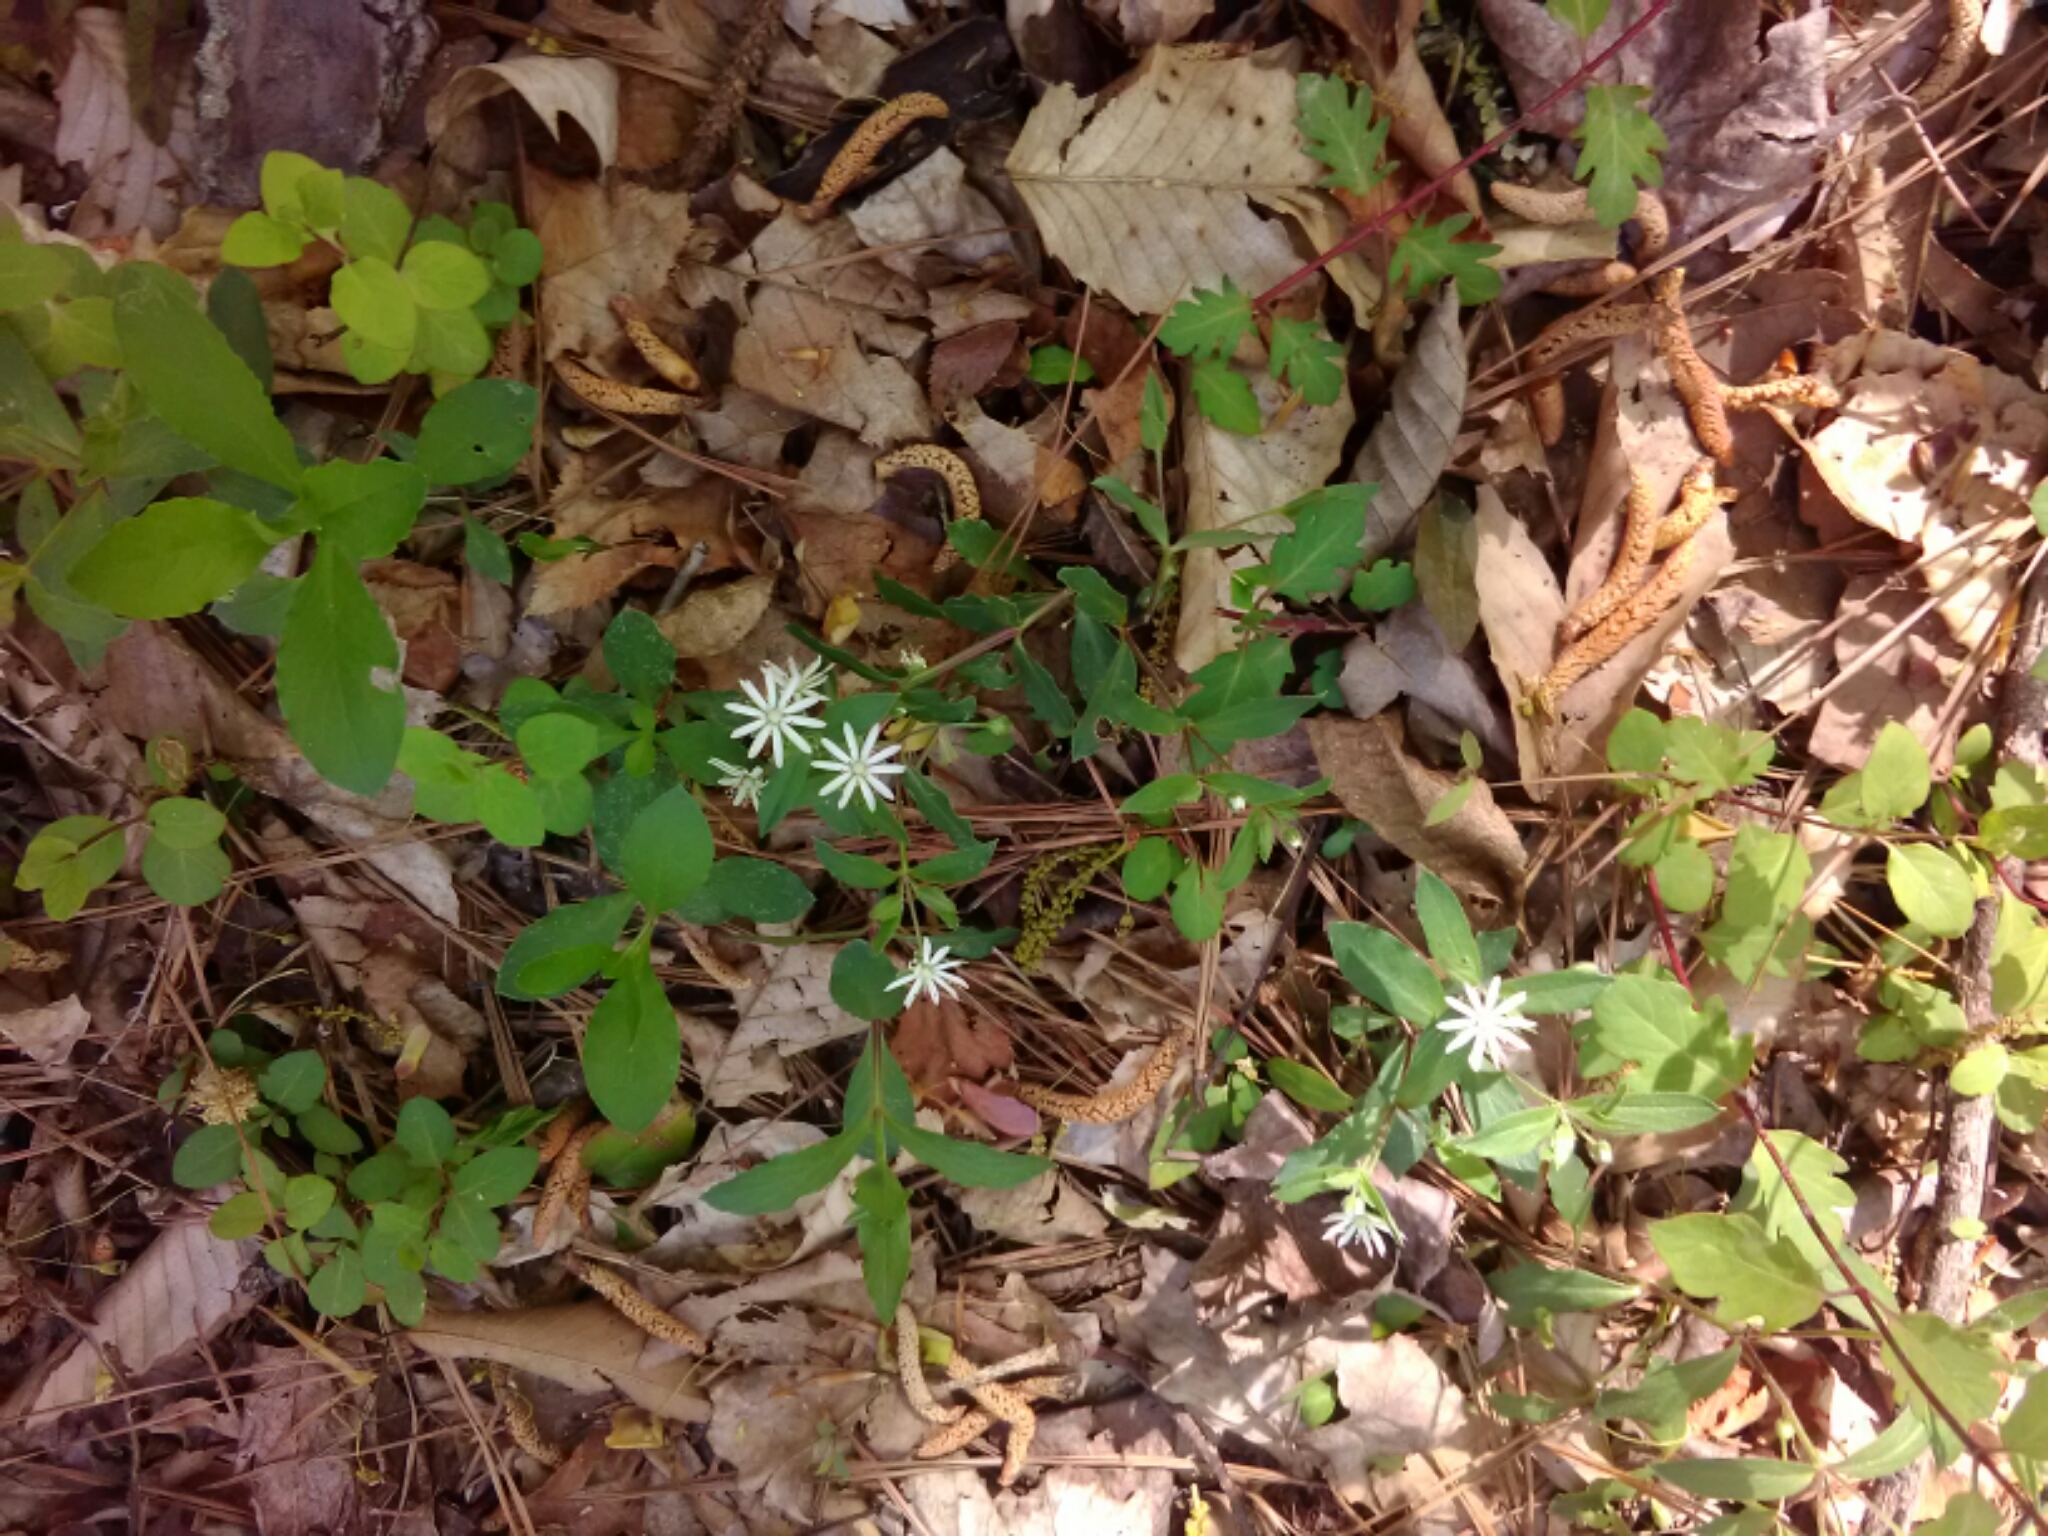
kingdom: Plantae
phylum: Tracheophyta
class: Magnoliopsida
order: Caryophyllales
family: Caryophyllaceae
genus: Stellaria
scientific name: Stellaria pubera
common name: Star chickweed
